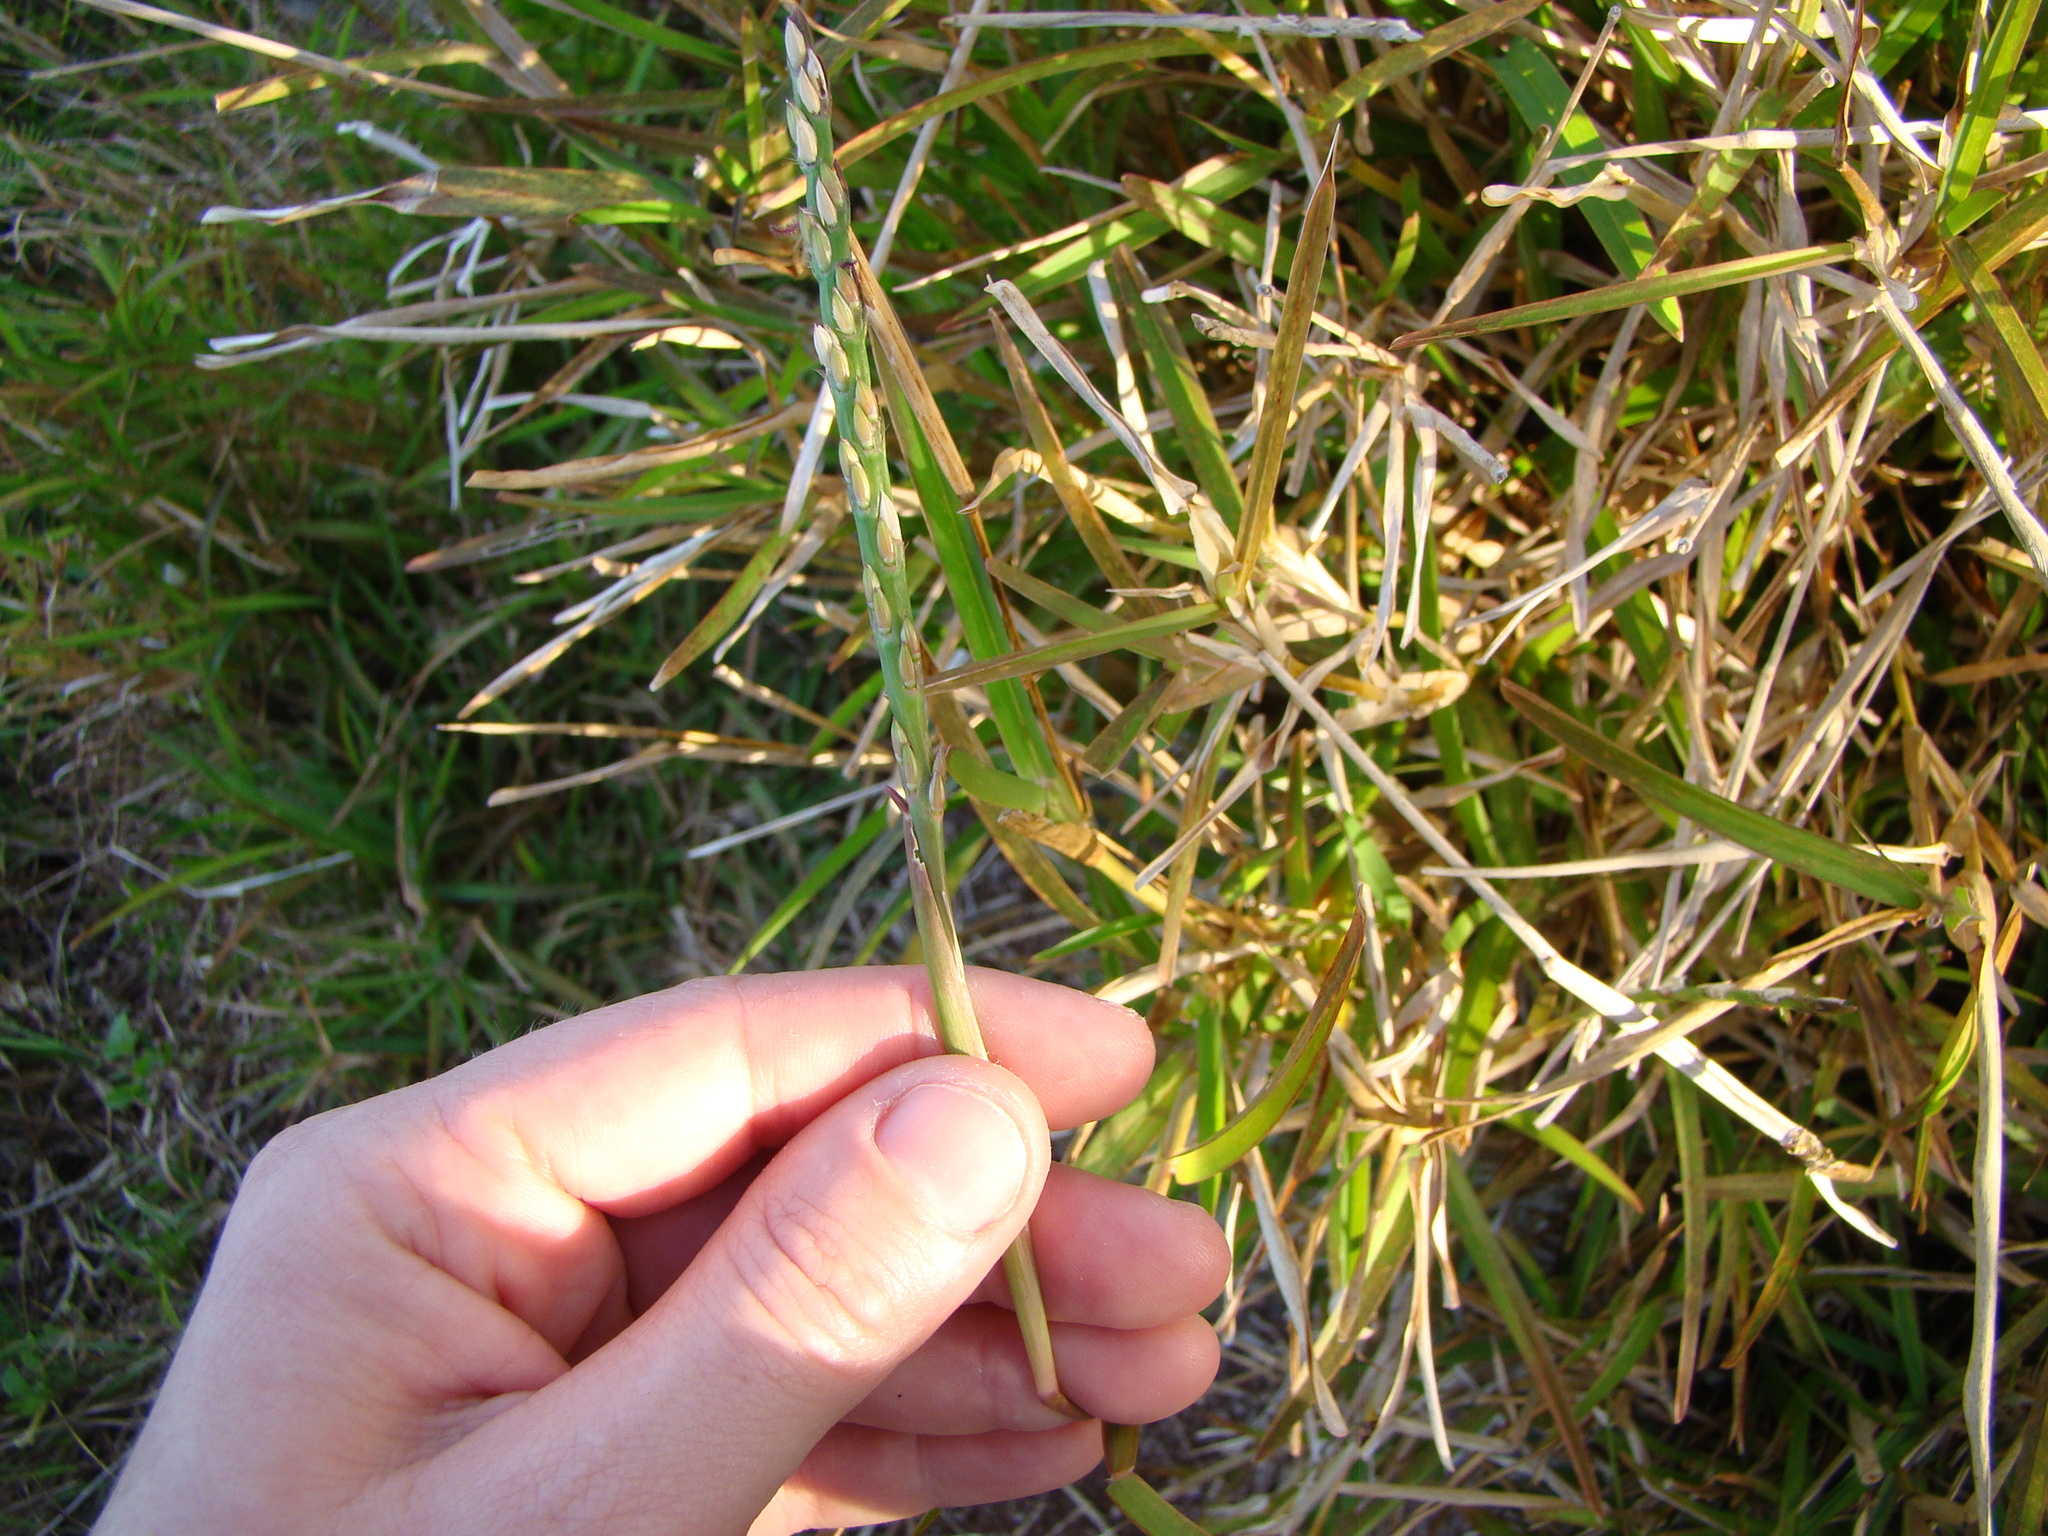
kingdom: Plantae
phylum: Tracheophyta
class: Liliopsida
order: Poales
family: Poaceae
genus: Stenotaphrum
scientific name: Stenotaphrum secundatum
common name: St. augustine grass
